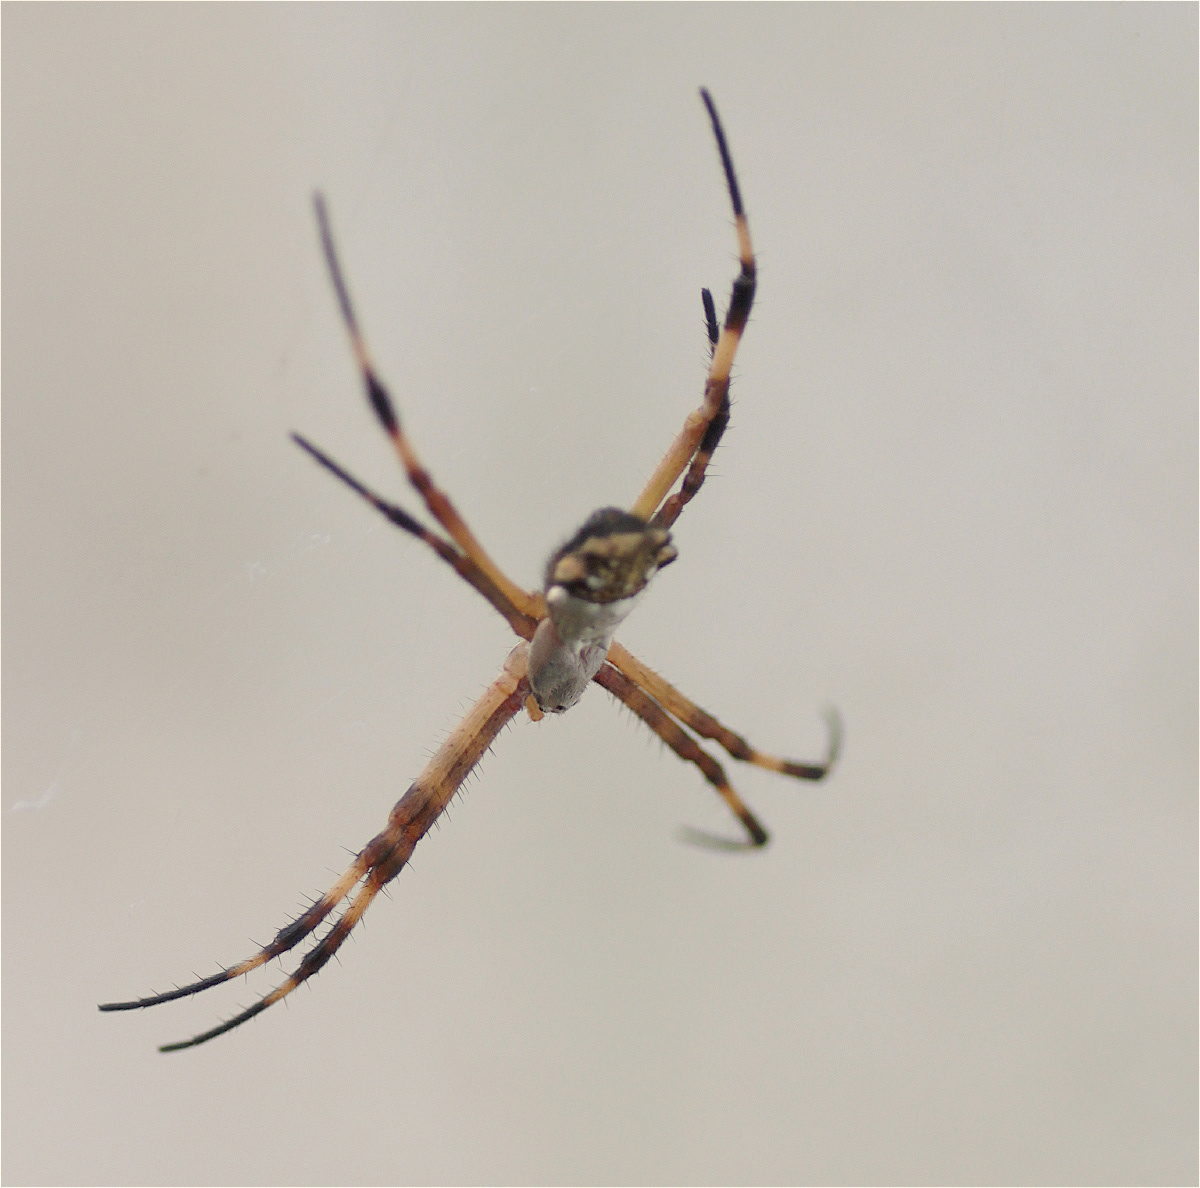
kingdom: Animalia
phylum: Arthropoda
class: Arachnida
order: Araneae
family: Araneidae
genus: Argiope
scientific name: Argiope argentata
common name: Orb weavers
